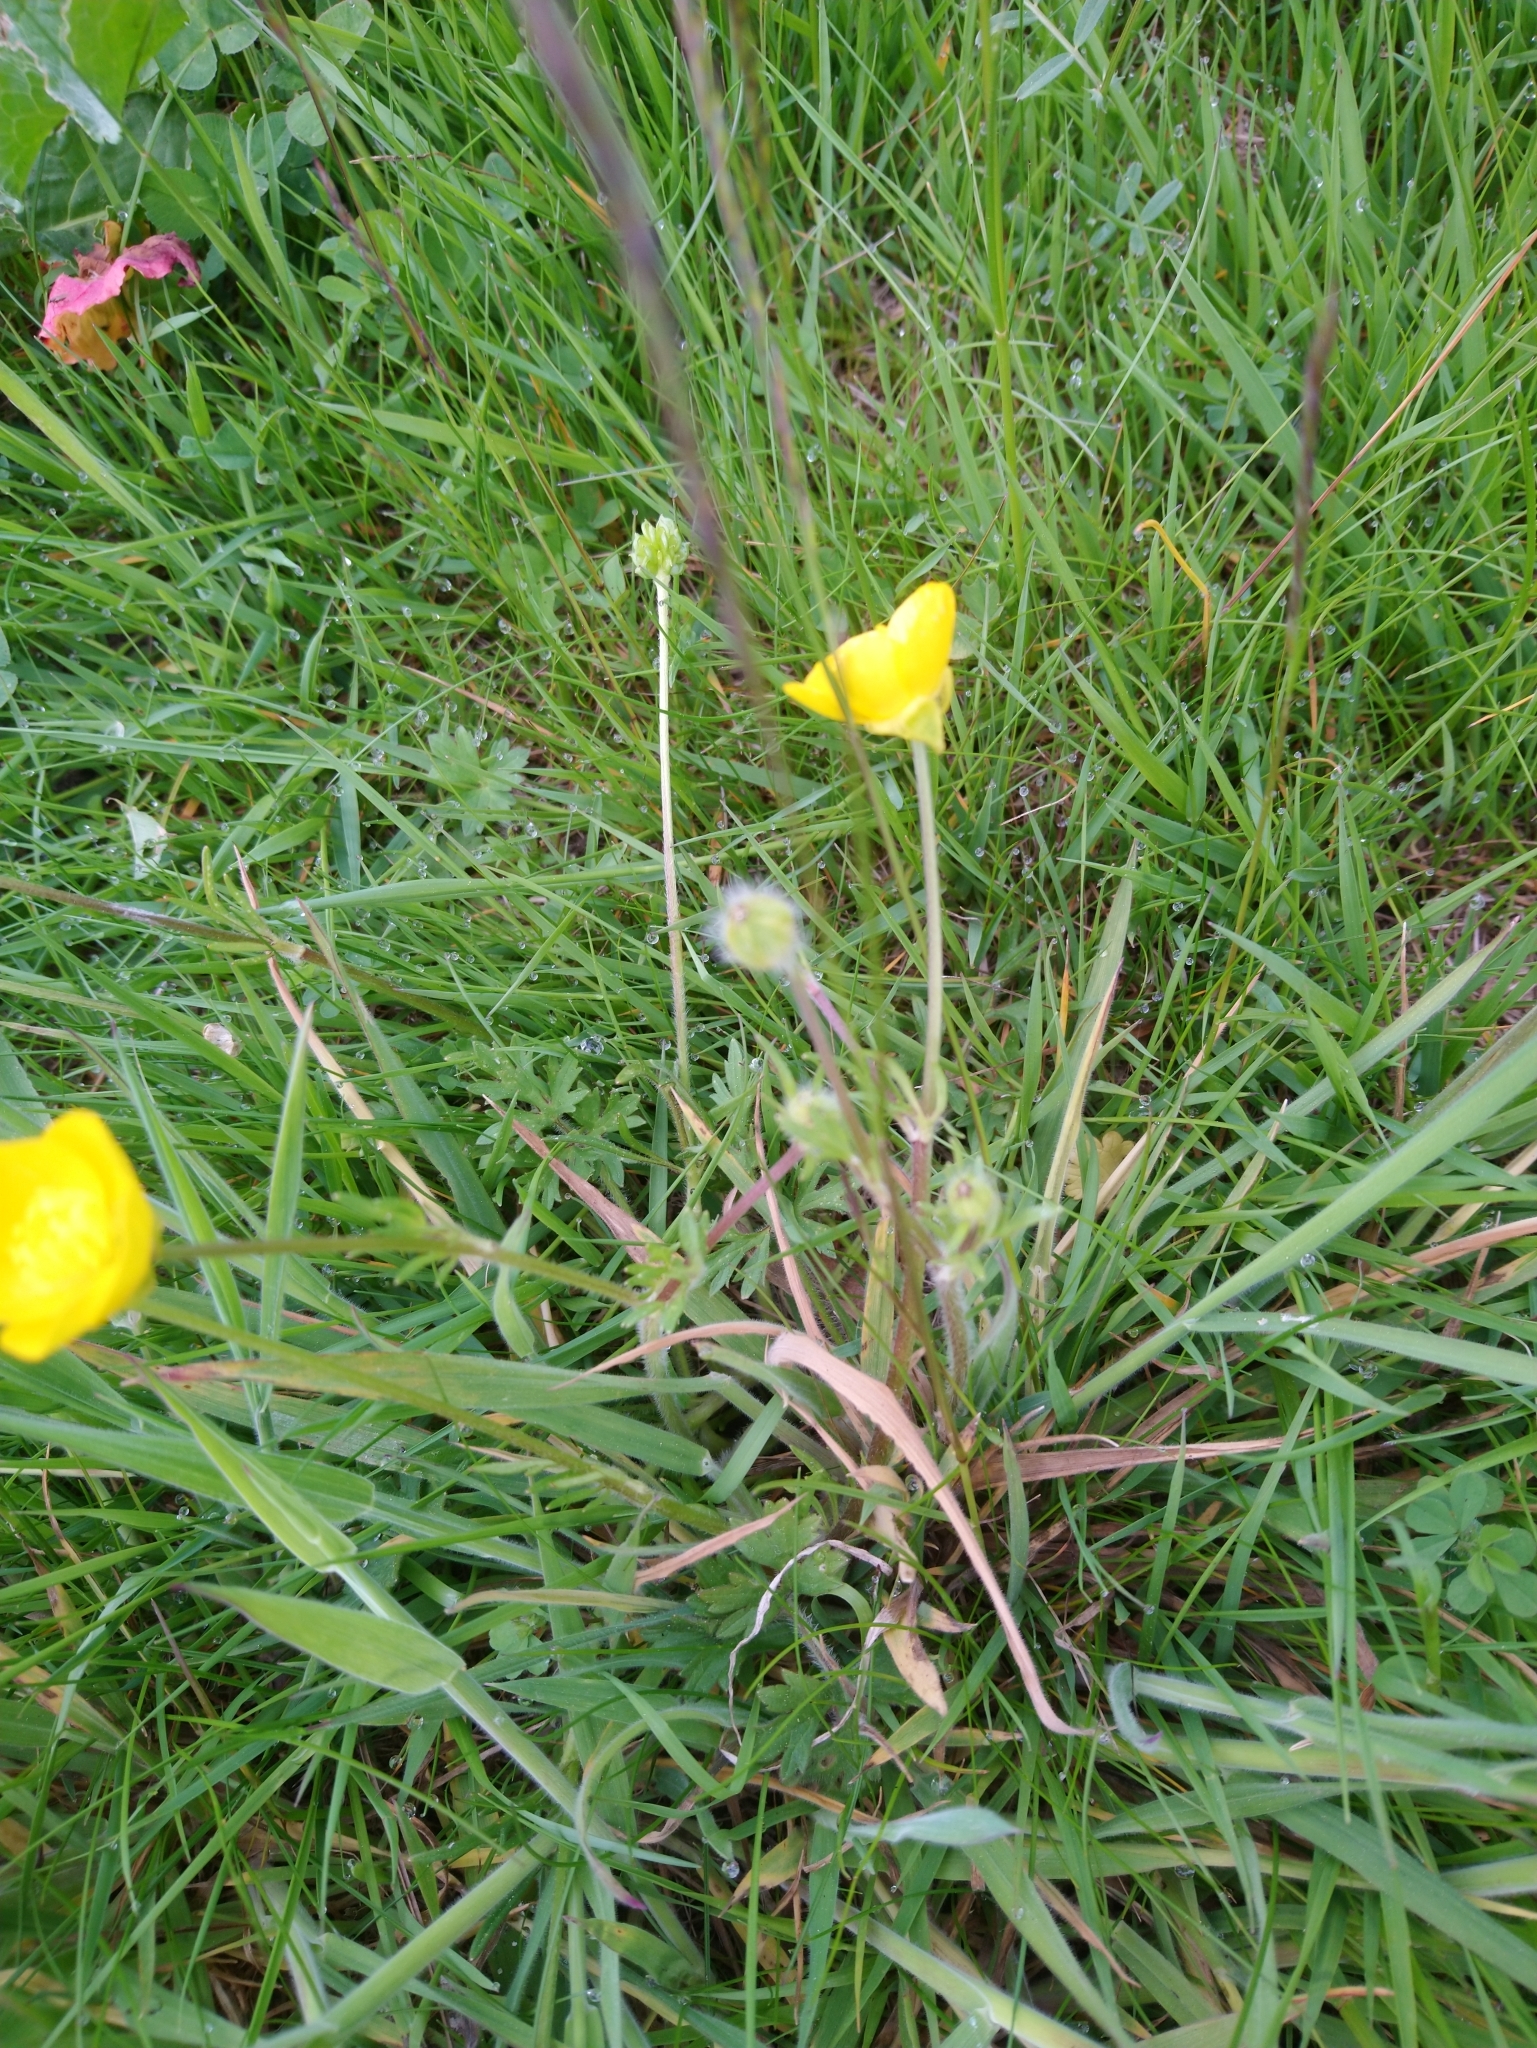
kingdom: Plantae
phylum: Tracheophyta
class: Magnoliopsida
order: Ranunculales
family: Ranunculaceae
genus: Ranunculus
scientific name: Ranunculus bulbosus
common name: Bulbous buttercup
